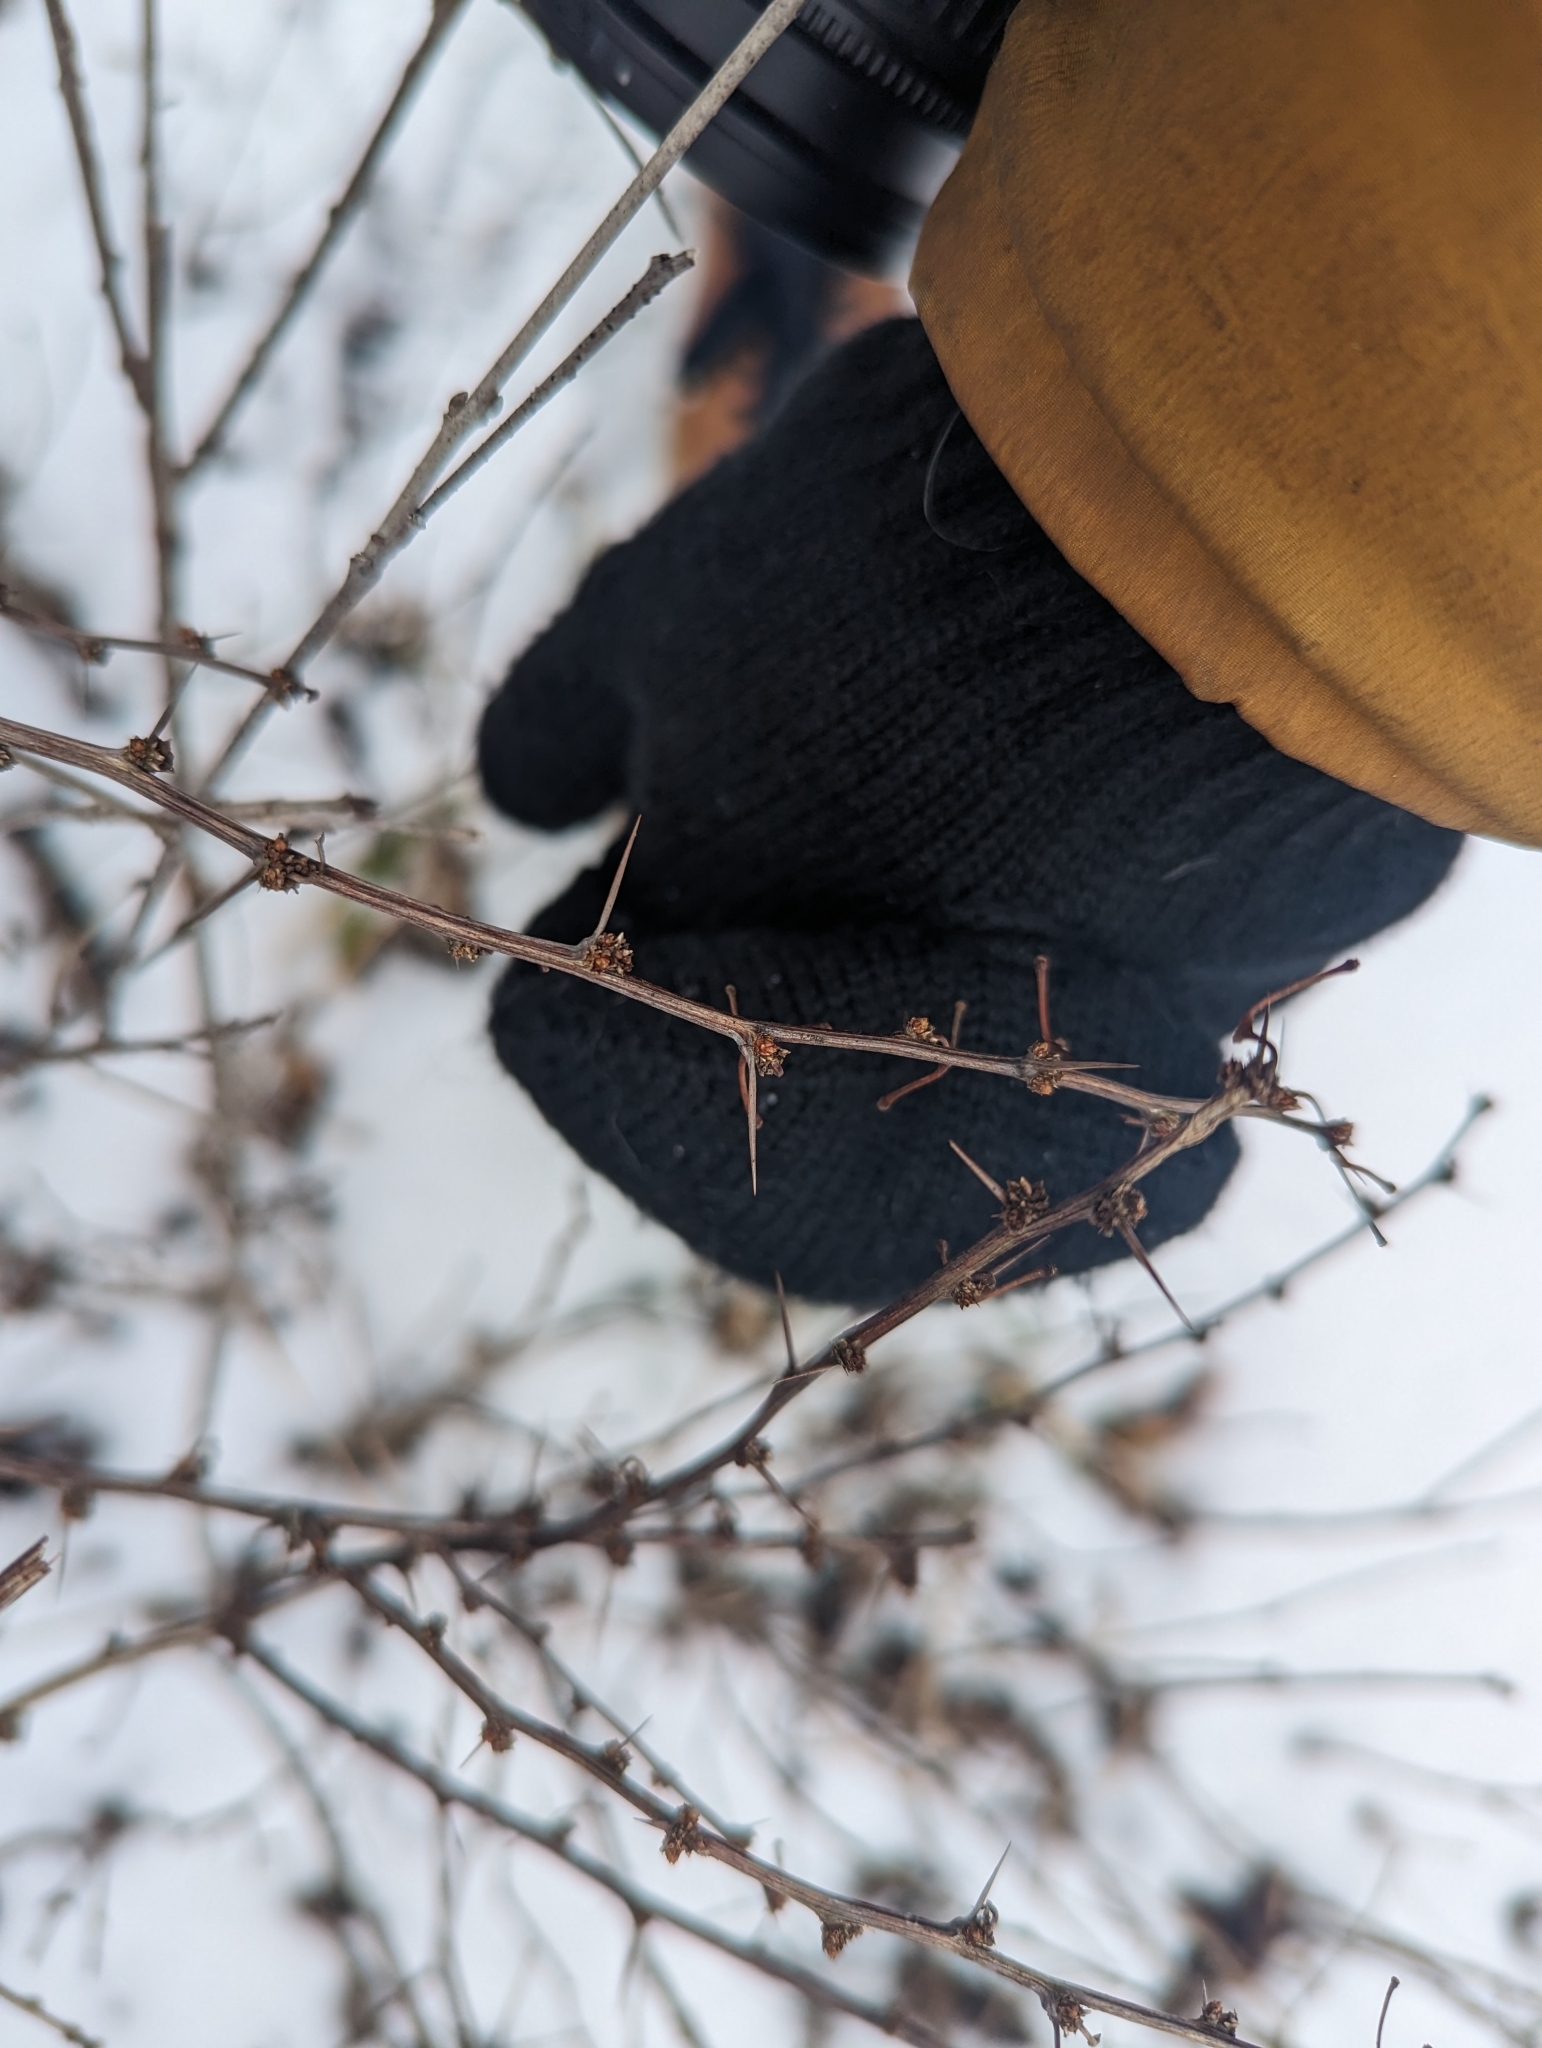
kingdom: Plantae
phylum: Tracheophyta
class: Magnoliopsida
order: Ranunculales
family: Berberidaceae
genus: Berberis
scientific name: Berberis thunbergii
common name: Japanese barberry
